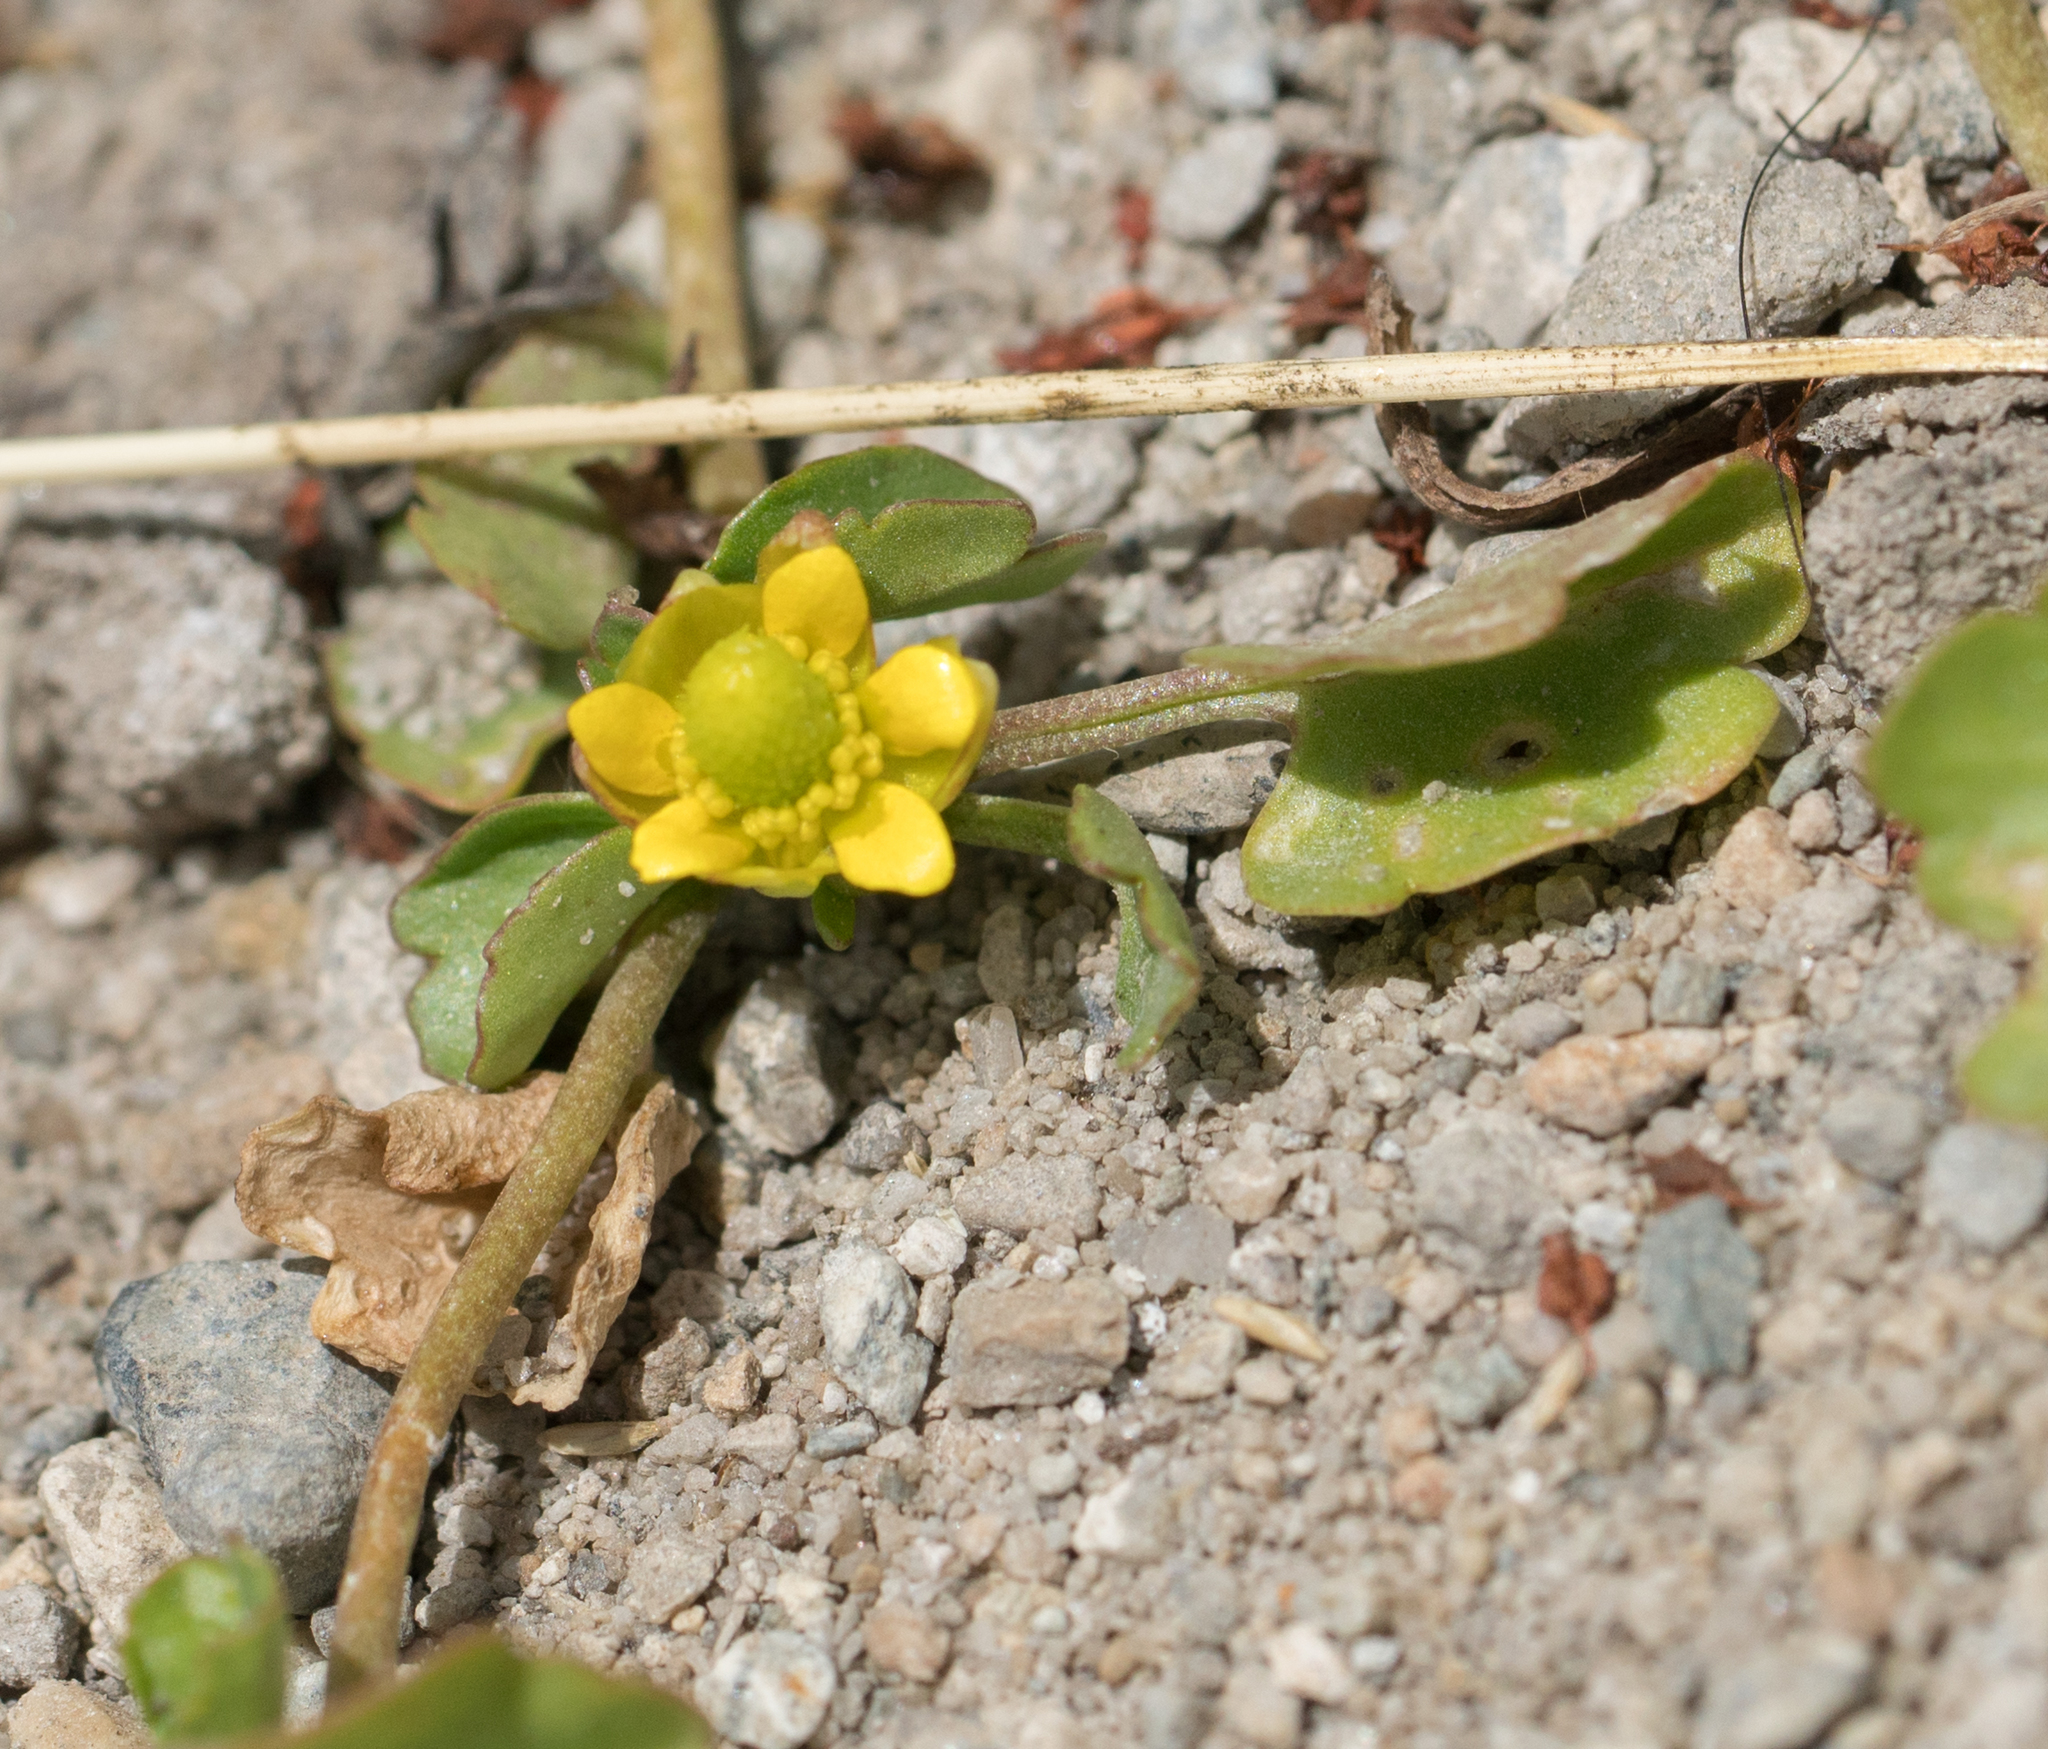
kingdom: Plantae
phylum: Tracheophyta
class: Magnoliopsida
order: Ranunculales
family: Ranunculaceae
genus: Halerpestes
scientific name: Halerpestes cymbalaria
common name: Seaside crowfoot
